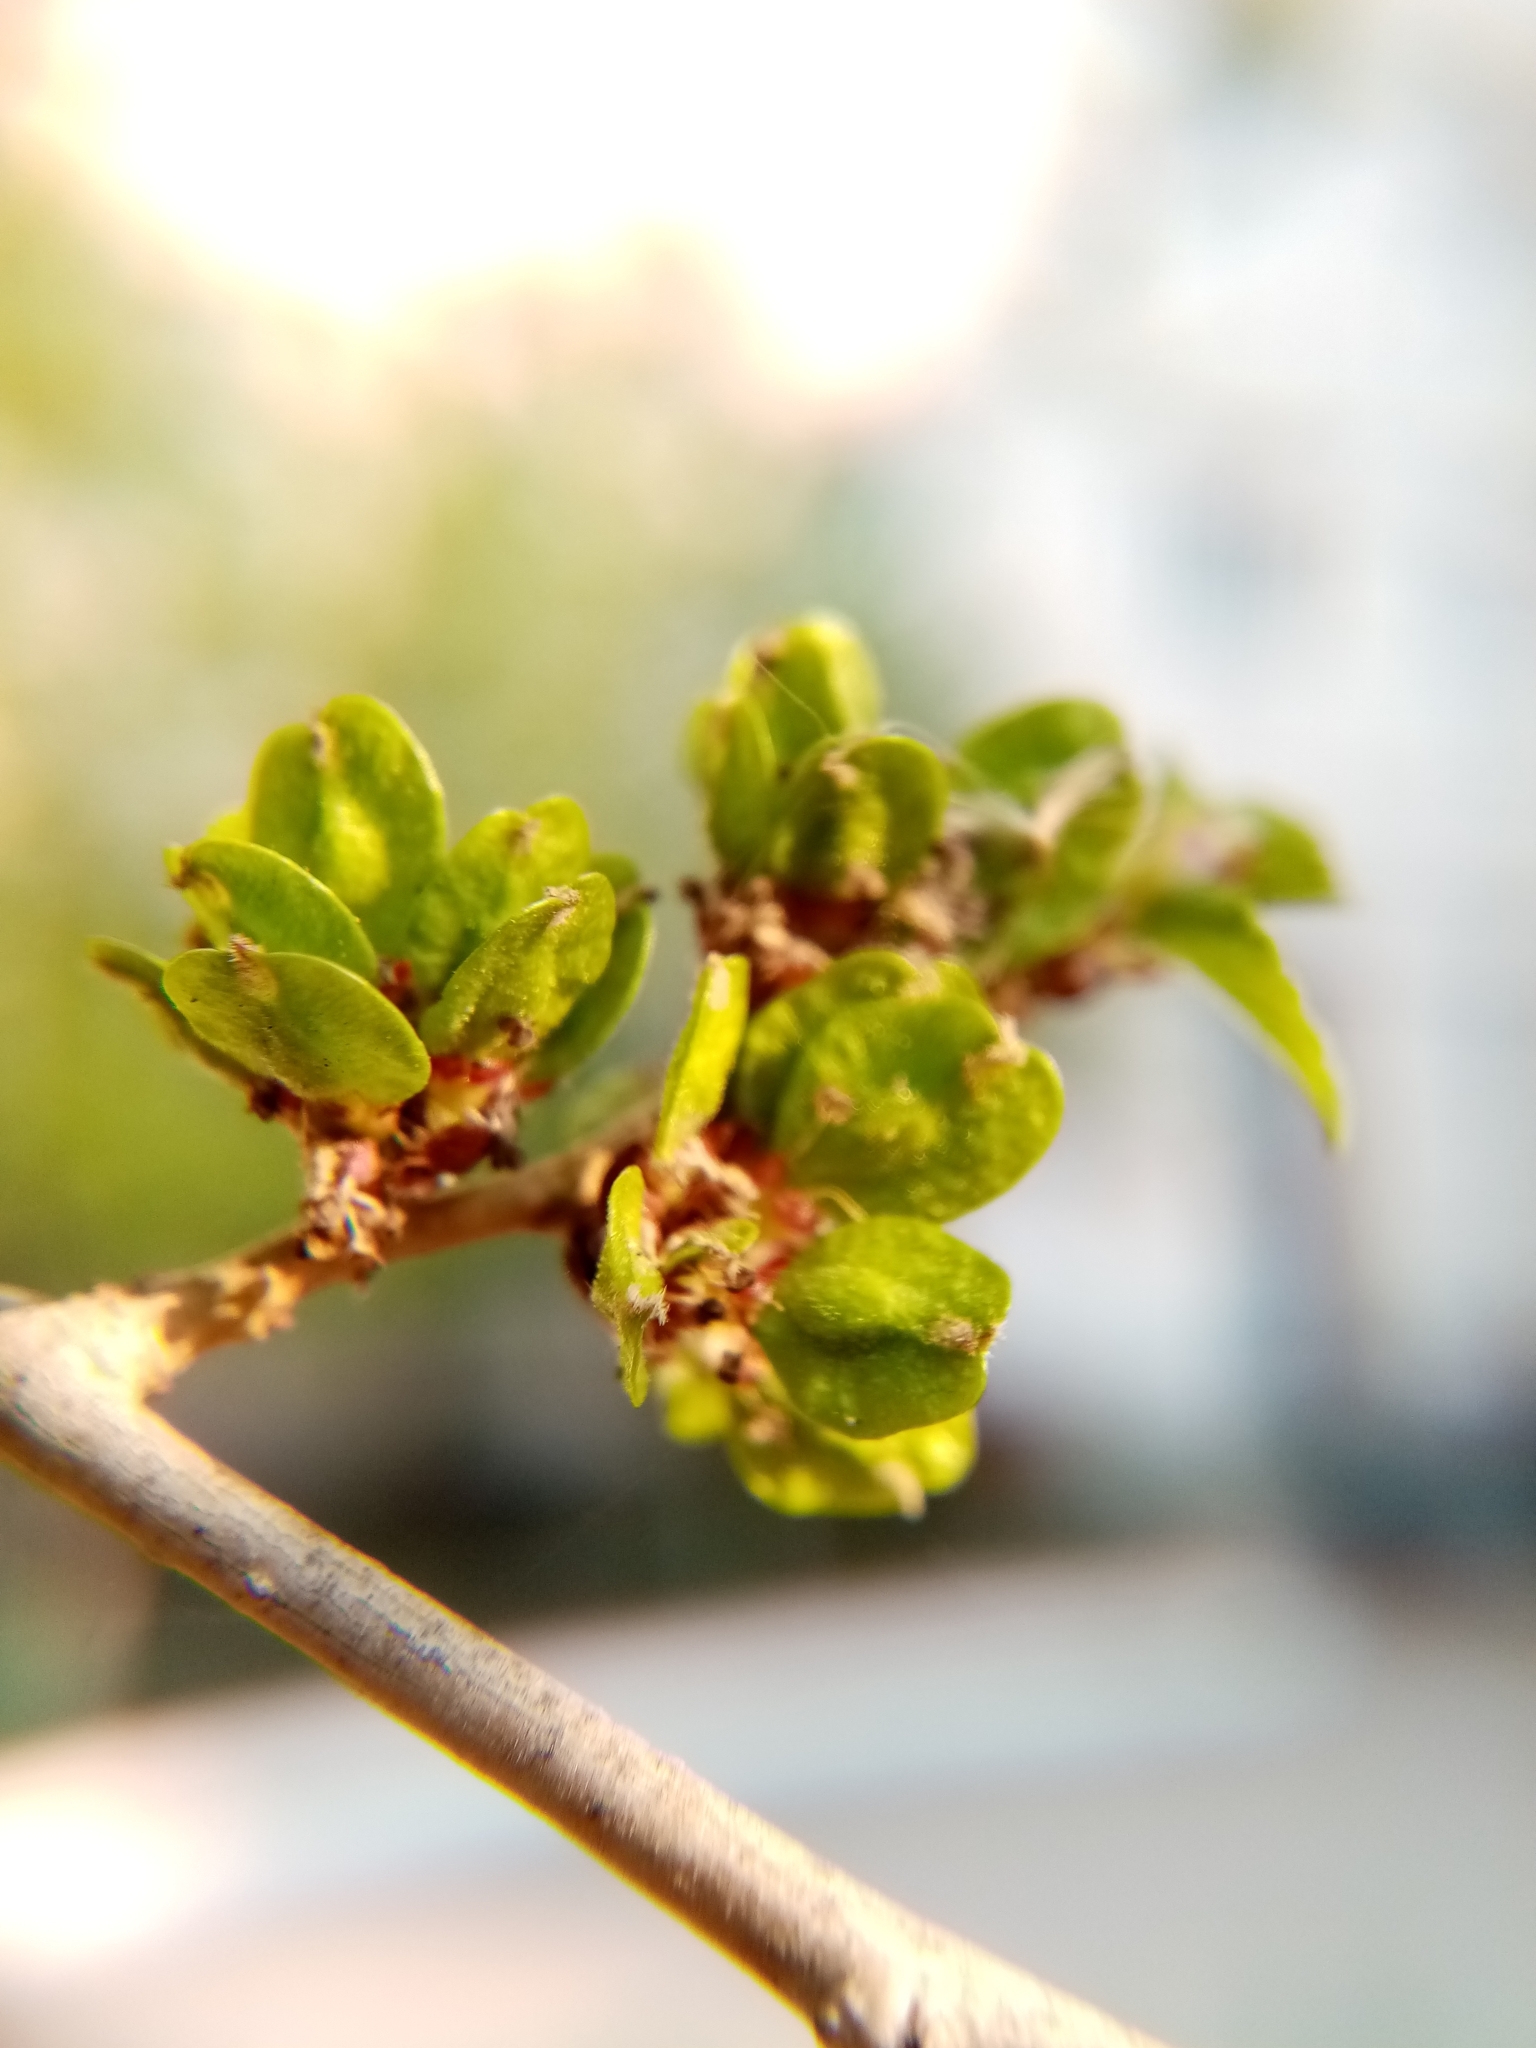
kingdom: Plantae
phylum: Tracheophyta
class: Magnoliopsida
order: Rosales
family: Ulmaceae
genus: Ulmus
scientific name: Ulmus pumila
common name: Siberian elm
